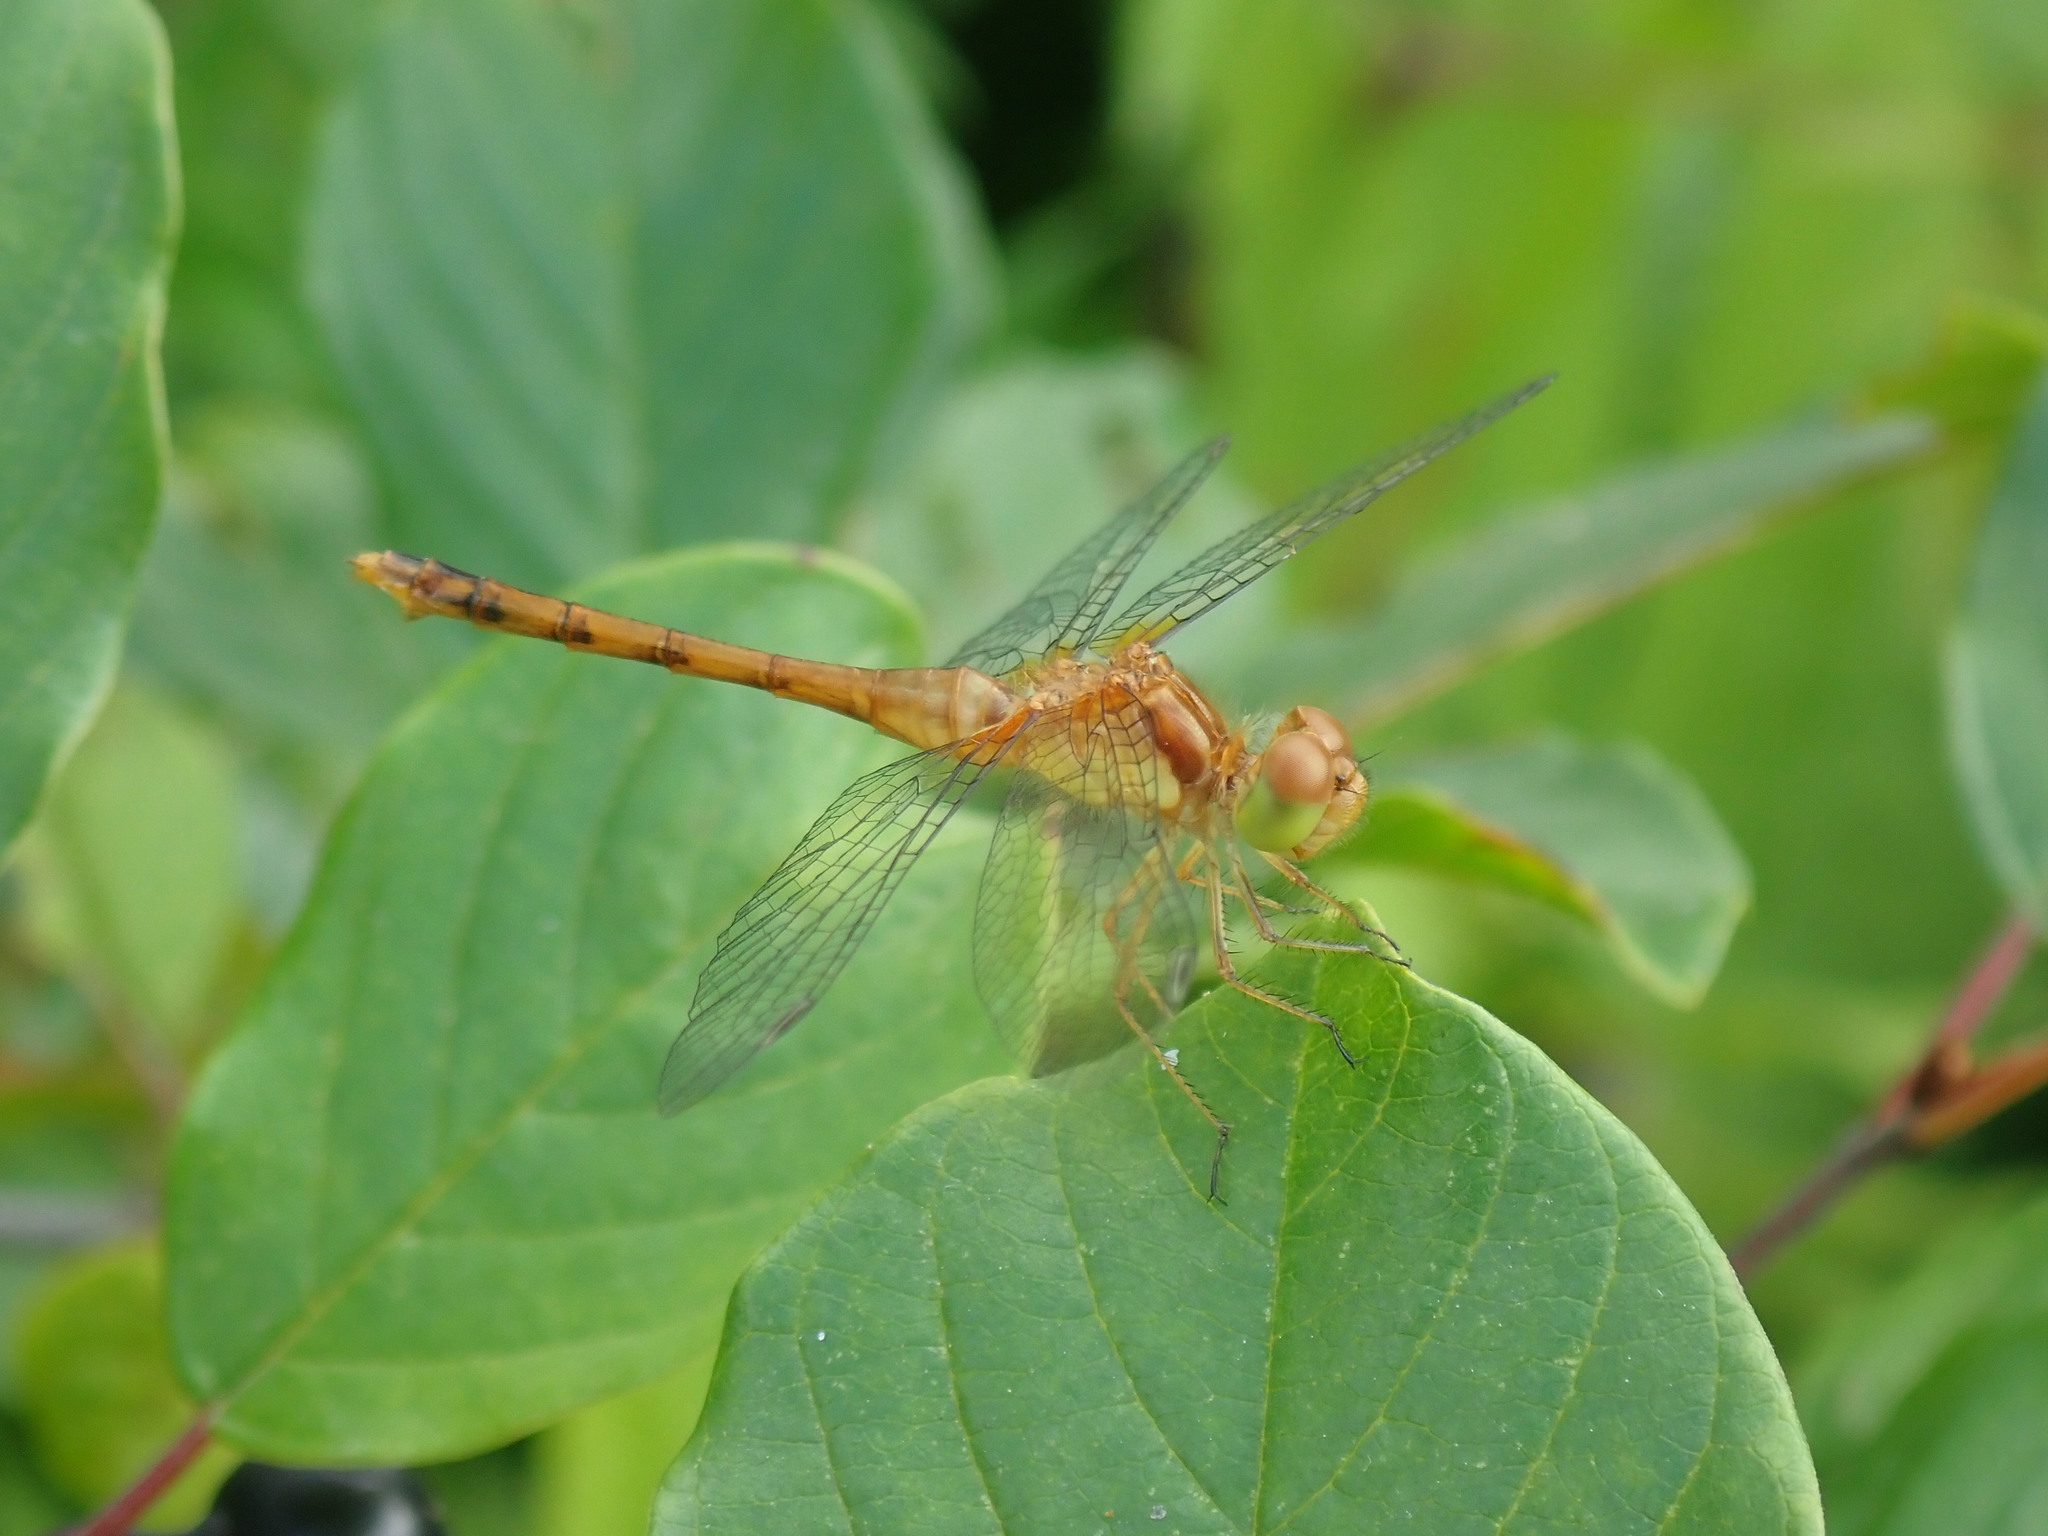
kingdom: Animalia
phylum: Arthropoda
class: Insecta
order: Odonata
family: Libellulidae
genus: Sympetrum
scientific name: Sympetrum vicinum
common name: Autumn meadowhawk
